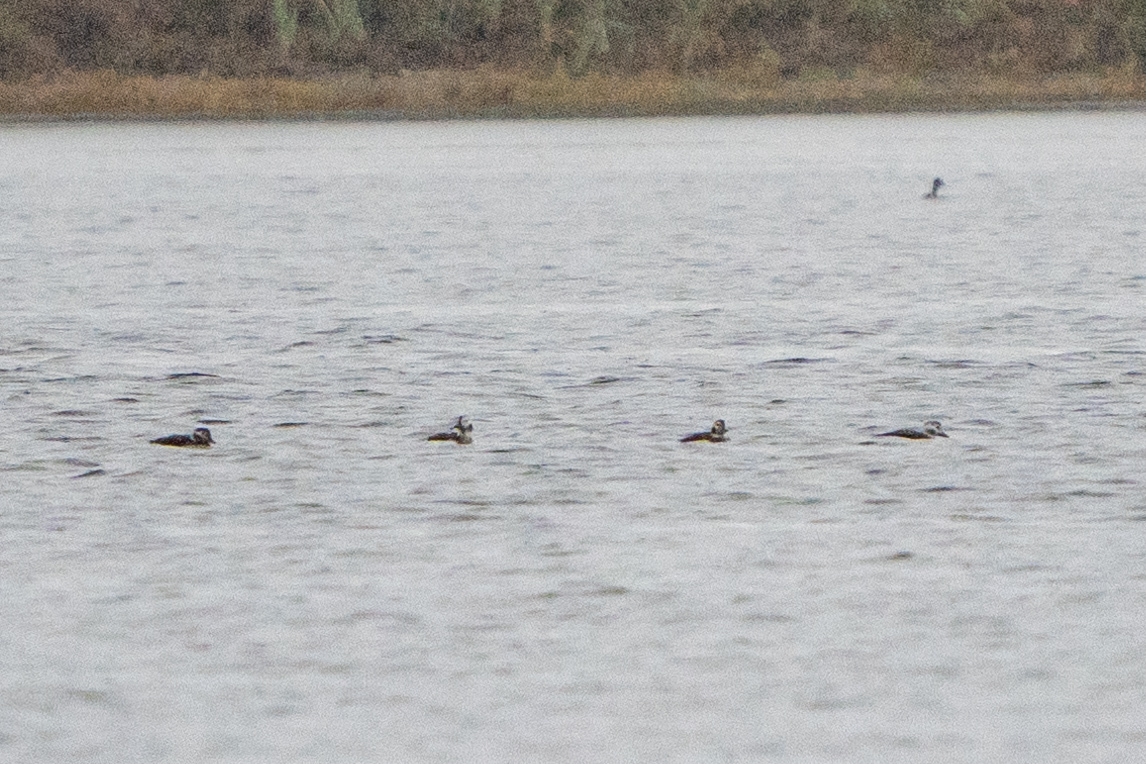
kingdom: Animalia
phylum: Chordata
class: Aves
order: Anseriformes
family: Anatidae
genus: Clangula
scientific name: Clangula hyemalis
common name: Long-tailed duck
